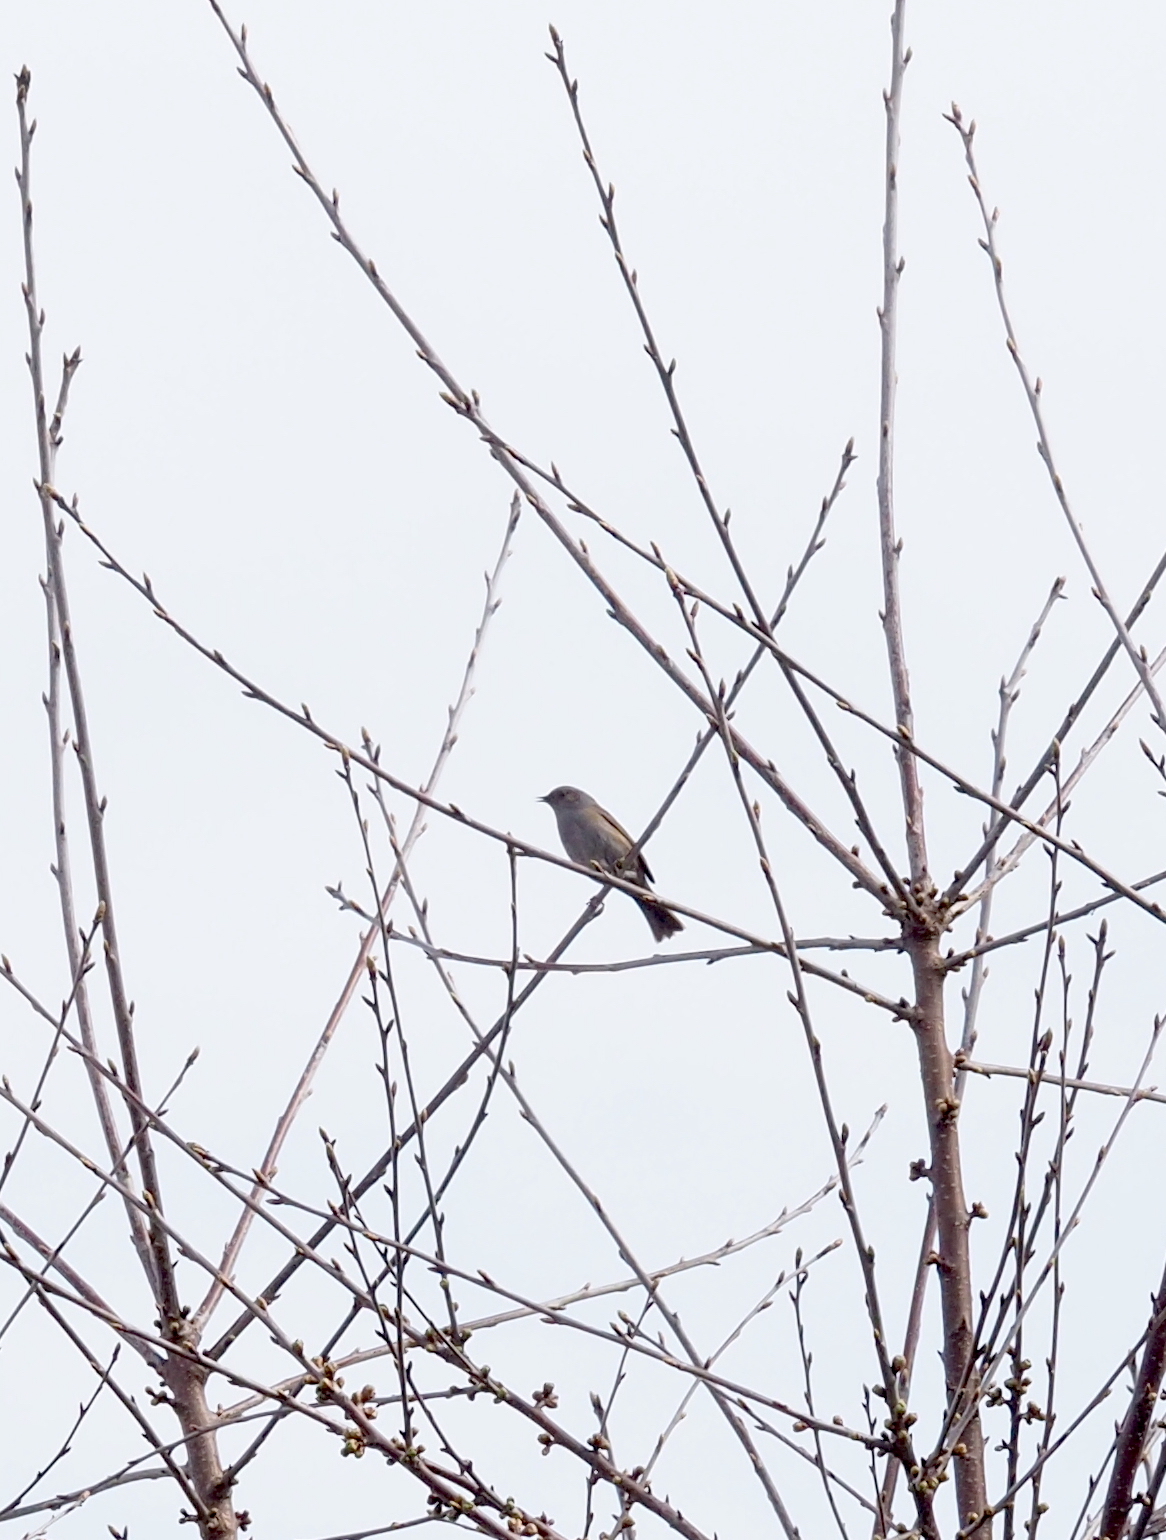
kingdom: Animalia
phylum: Chordata
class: Aves
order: Passeriformes
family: Prunellidae
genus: Prunella
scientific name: Prunella modularis
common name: Dunnock
